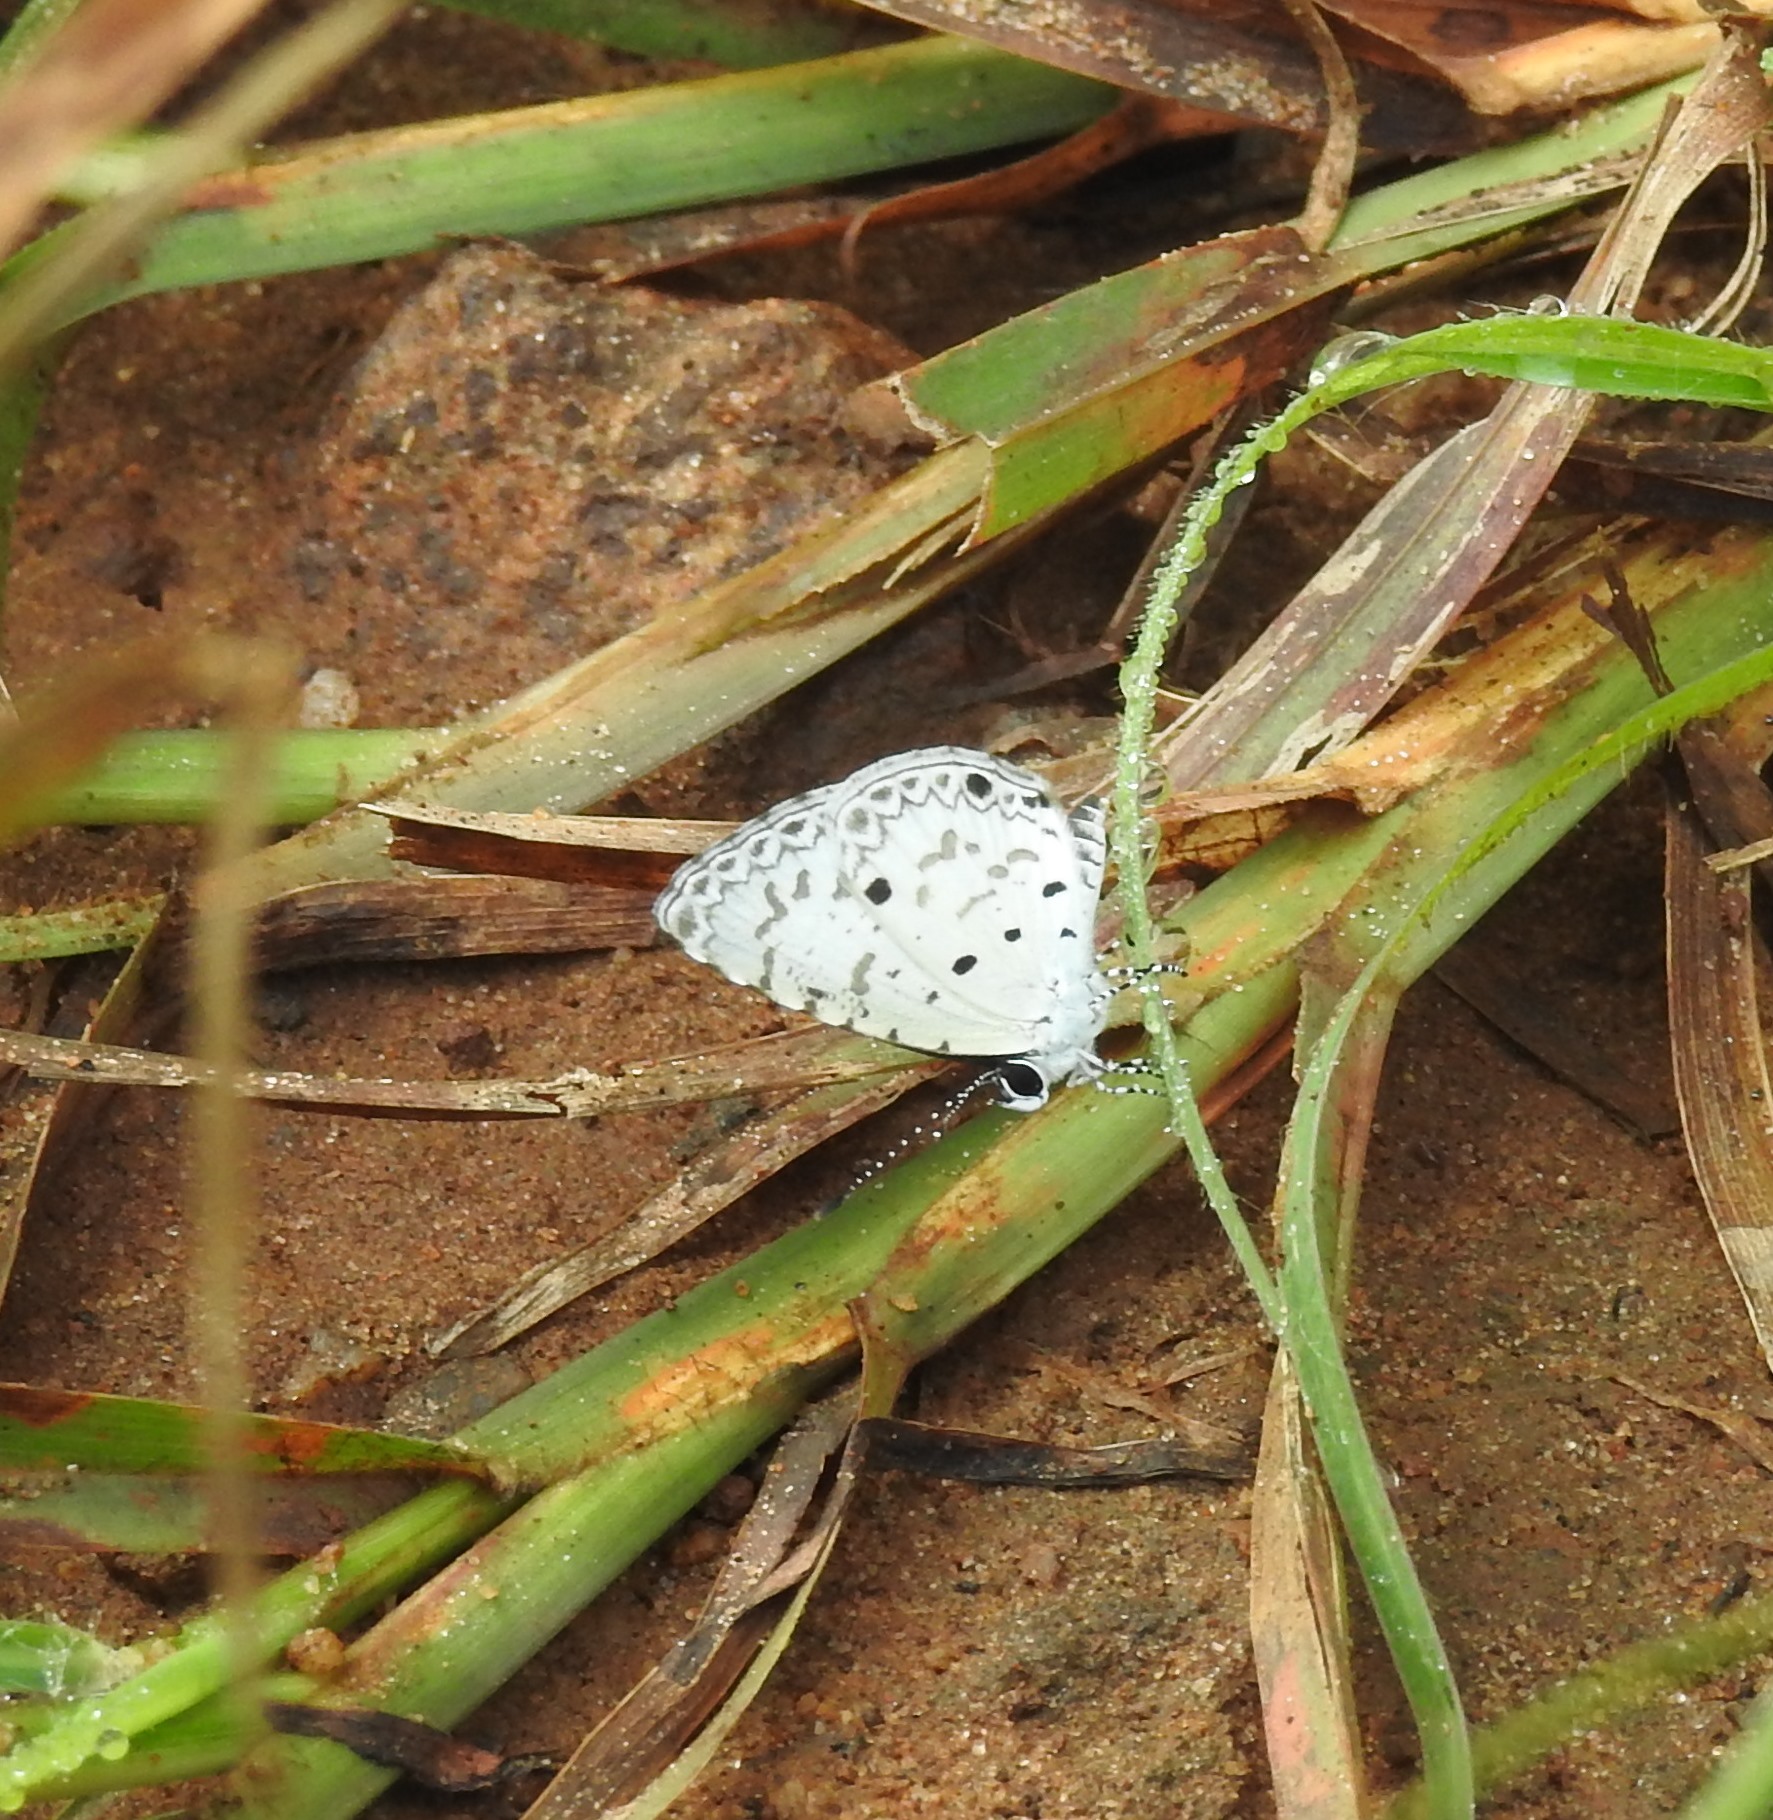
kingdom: Animalia
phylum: Arthropoda
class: Insecta
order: Lepidoptera
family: Lycaenidae
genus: Acytolepis
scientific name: Acytolepis puspa
